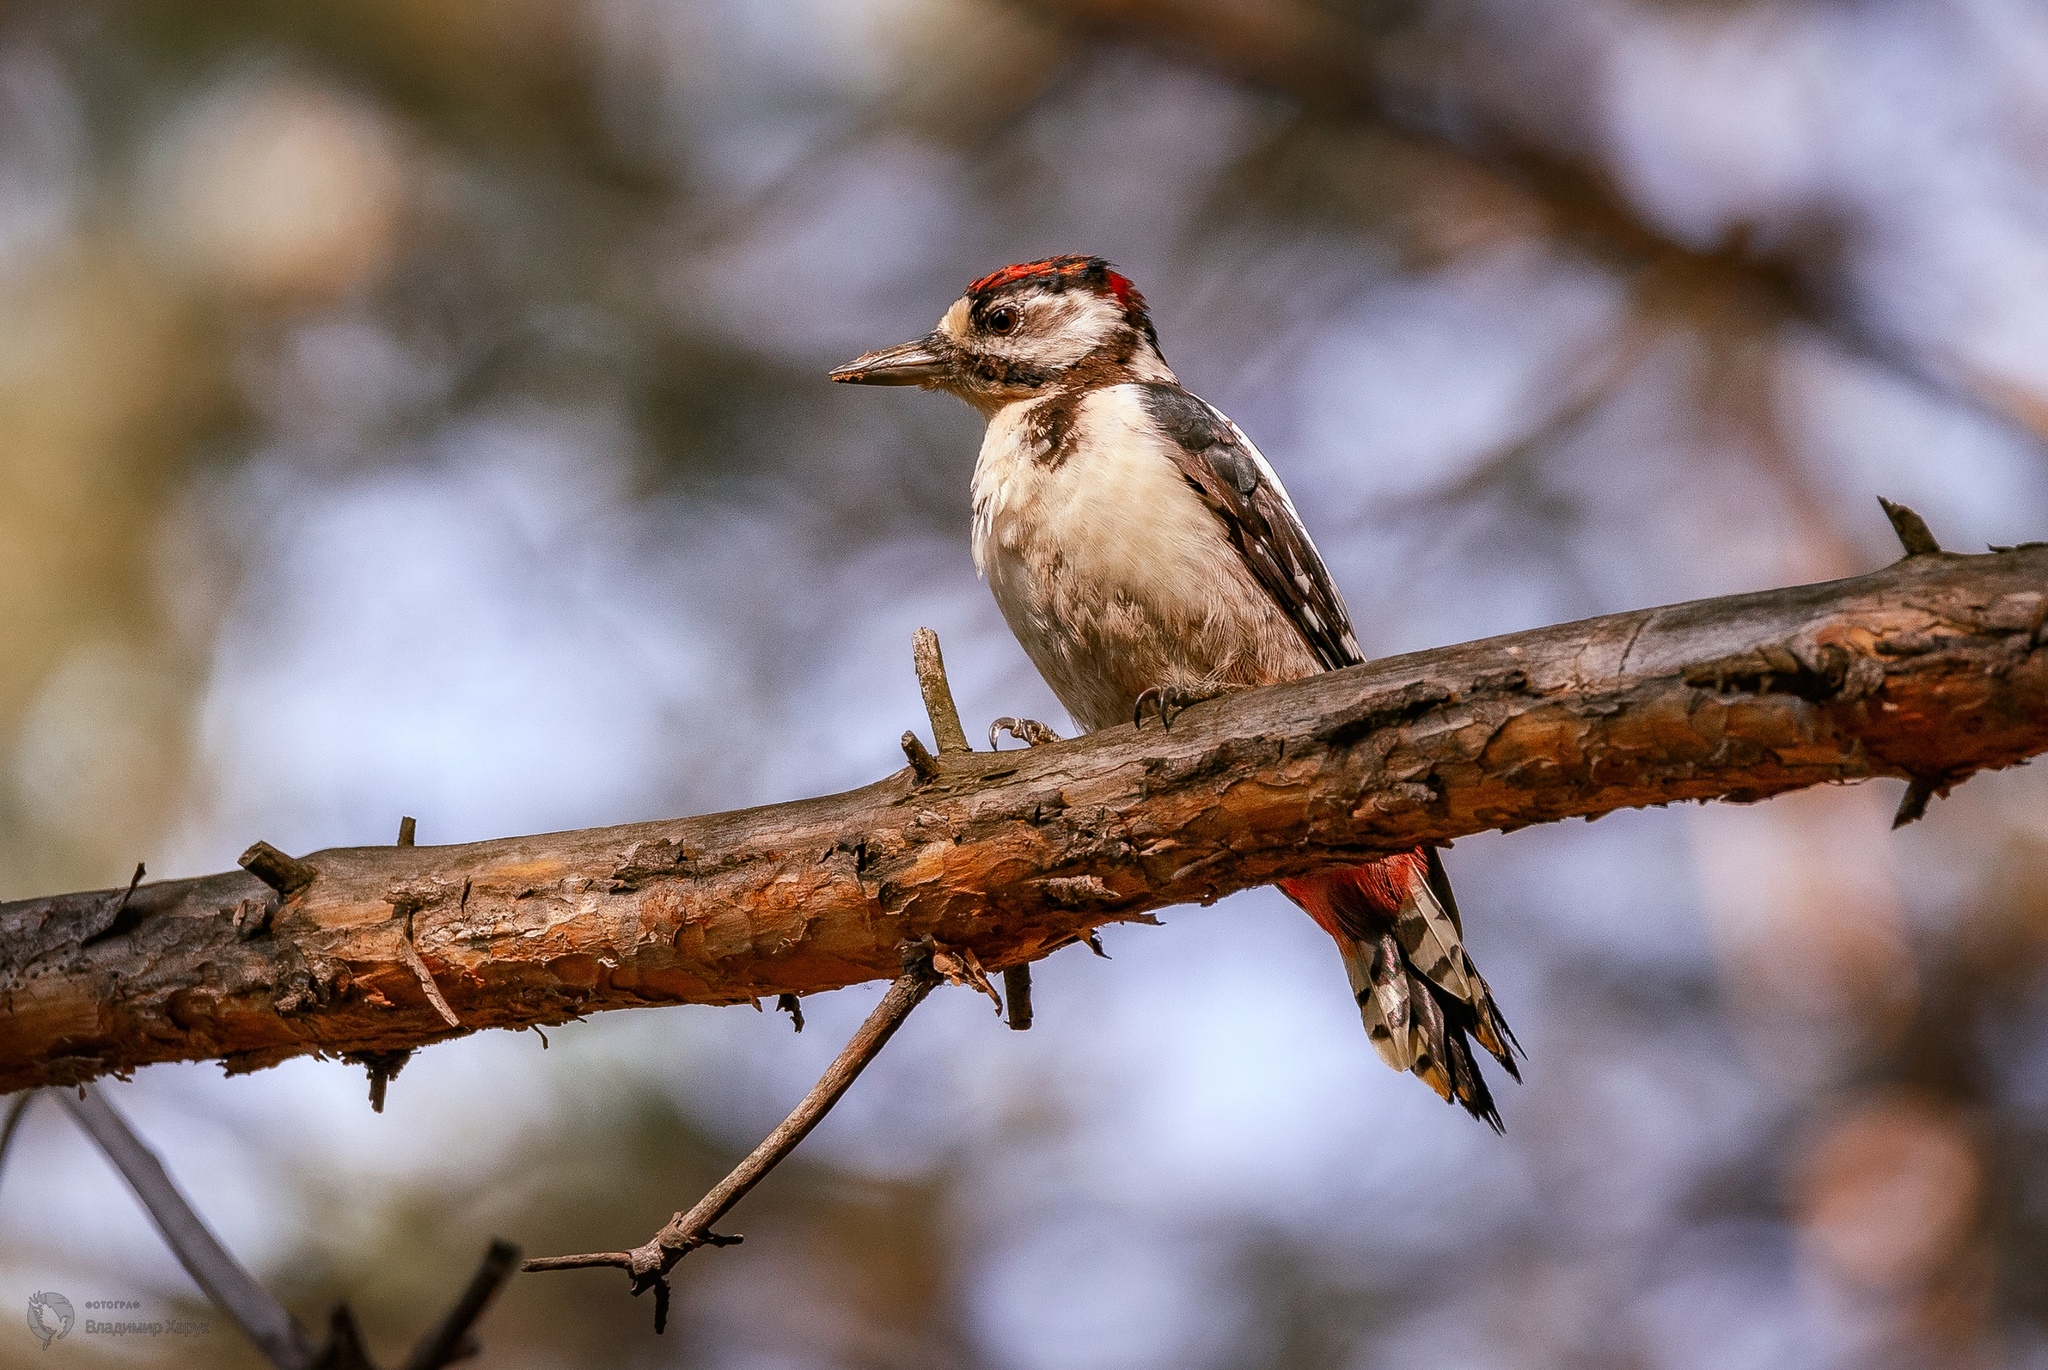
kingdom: Animalia
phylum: Chordata
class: Aves
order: Piciformes
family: Picidae
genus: Dendrocopos
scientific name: Dendrocopos major
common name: Great spotted woodpecker
